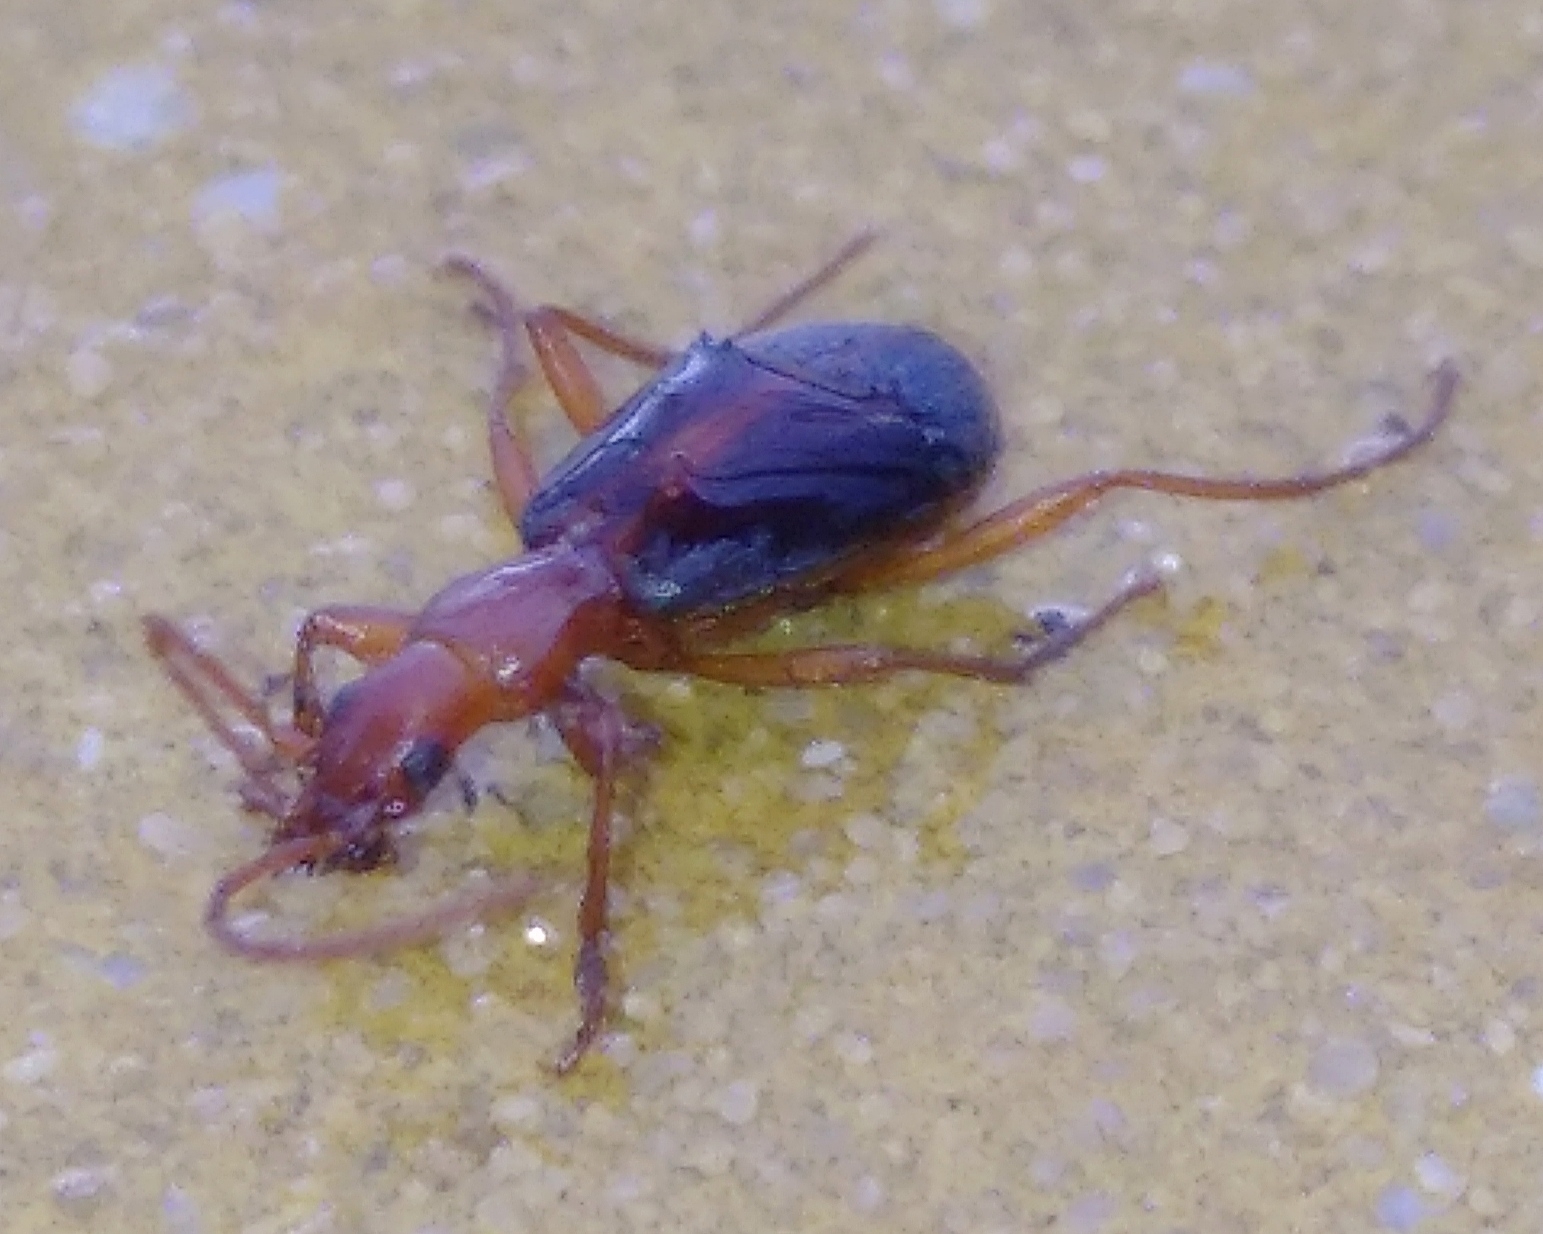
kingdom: Animalia
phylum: Arthropoda
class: Insecta
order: Coleoptera
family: Carabidae
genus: Brachinus
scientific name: Brachinus alexandri
